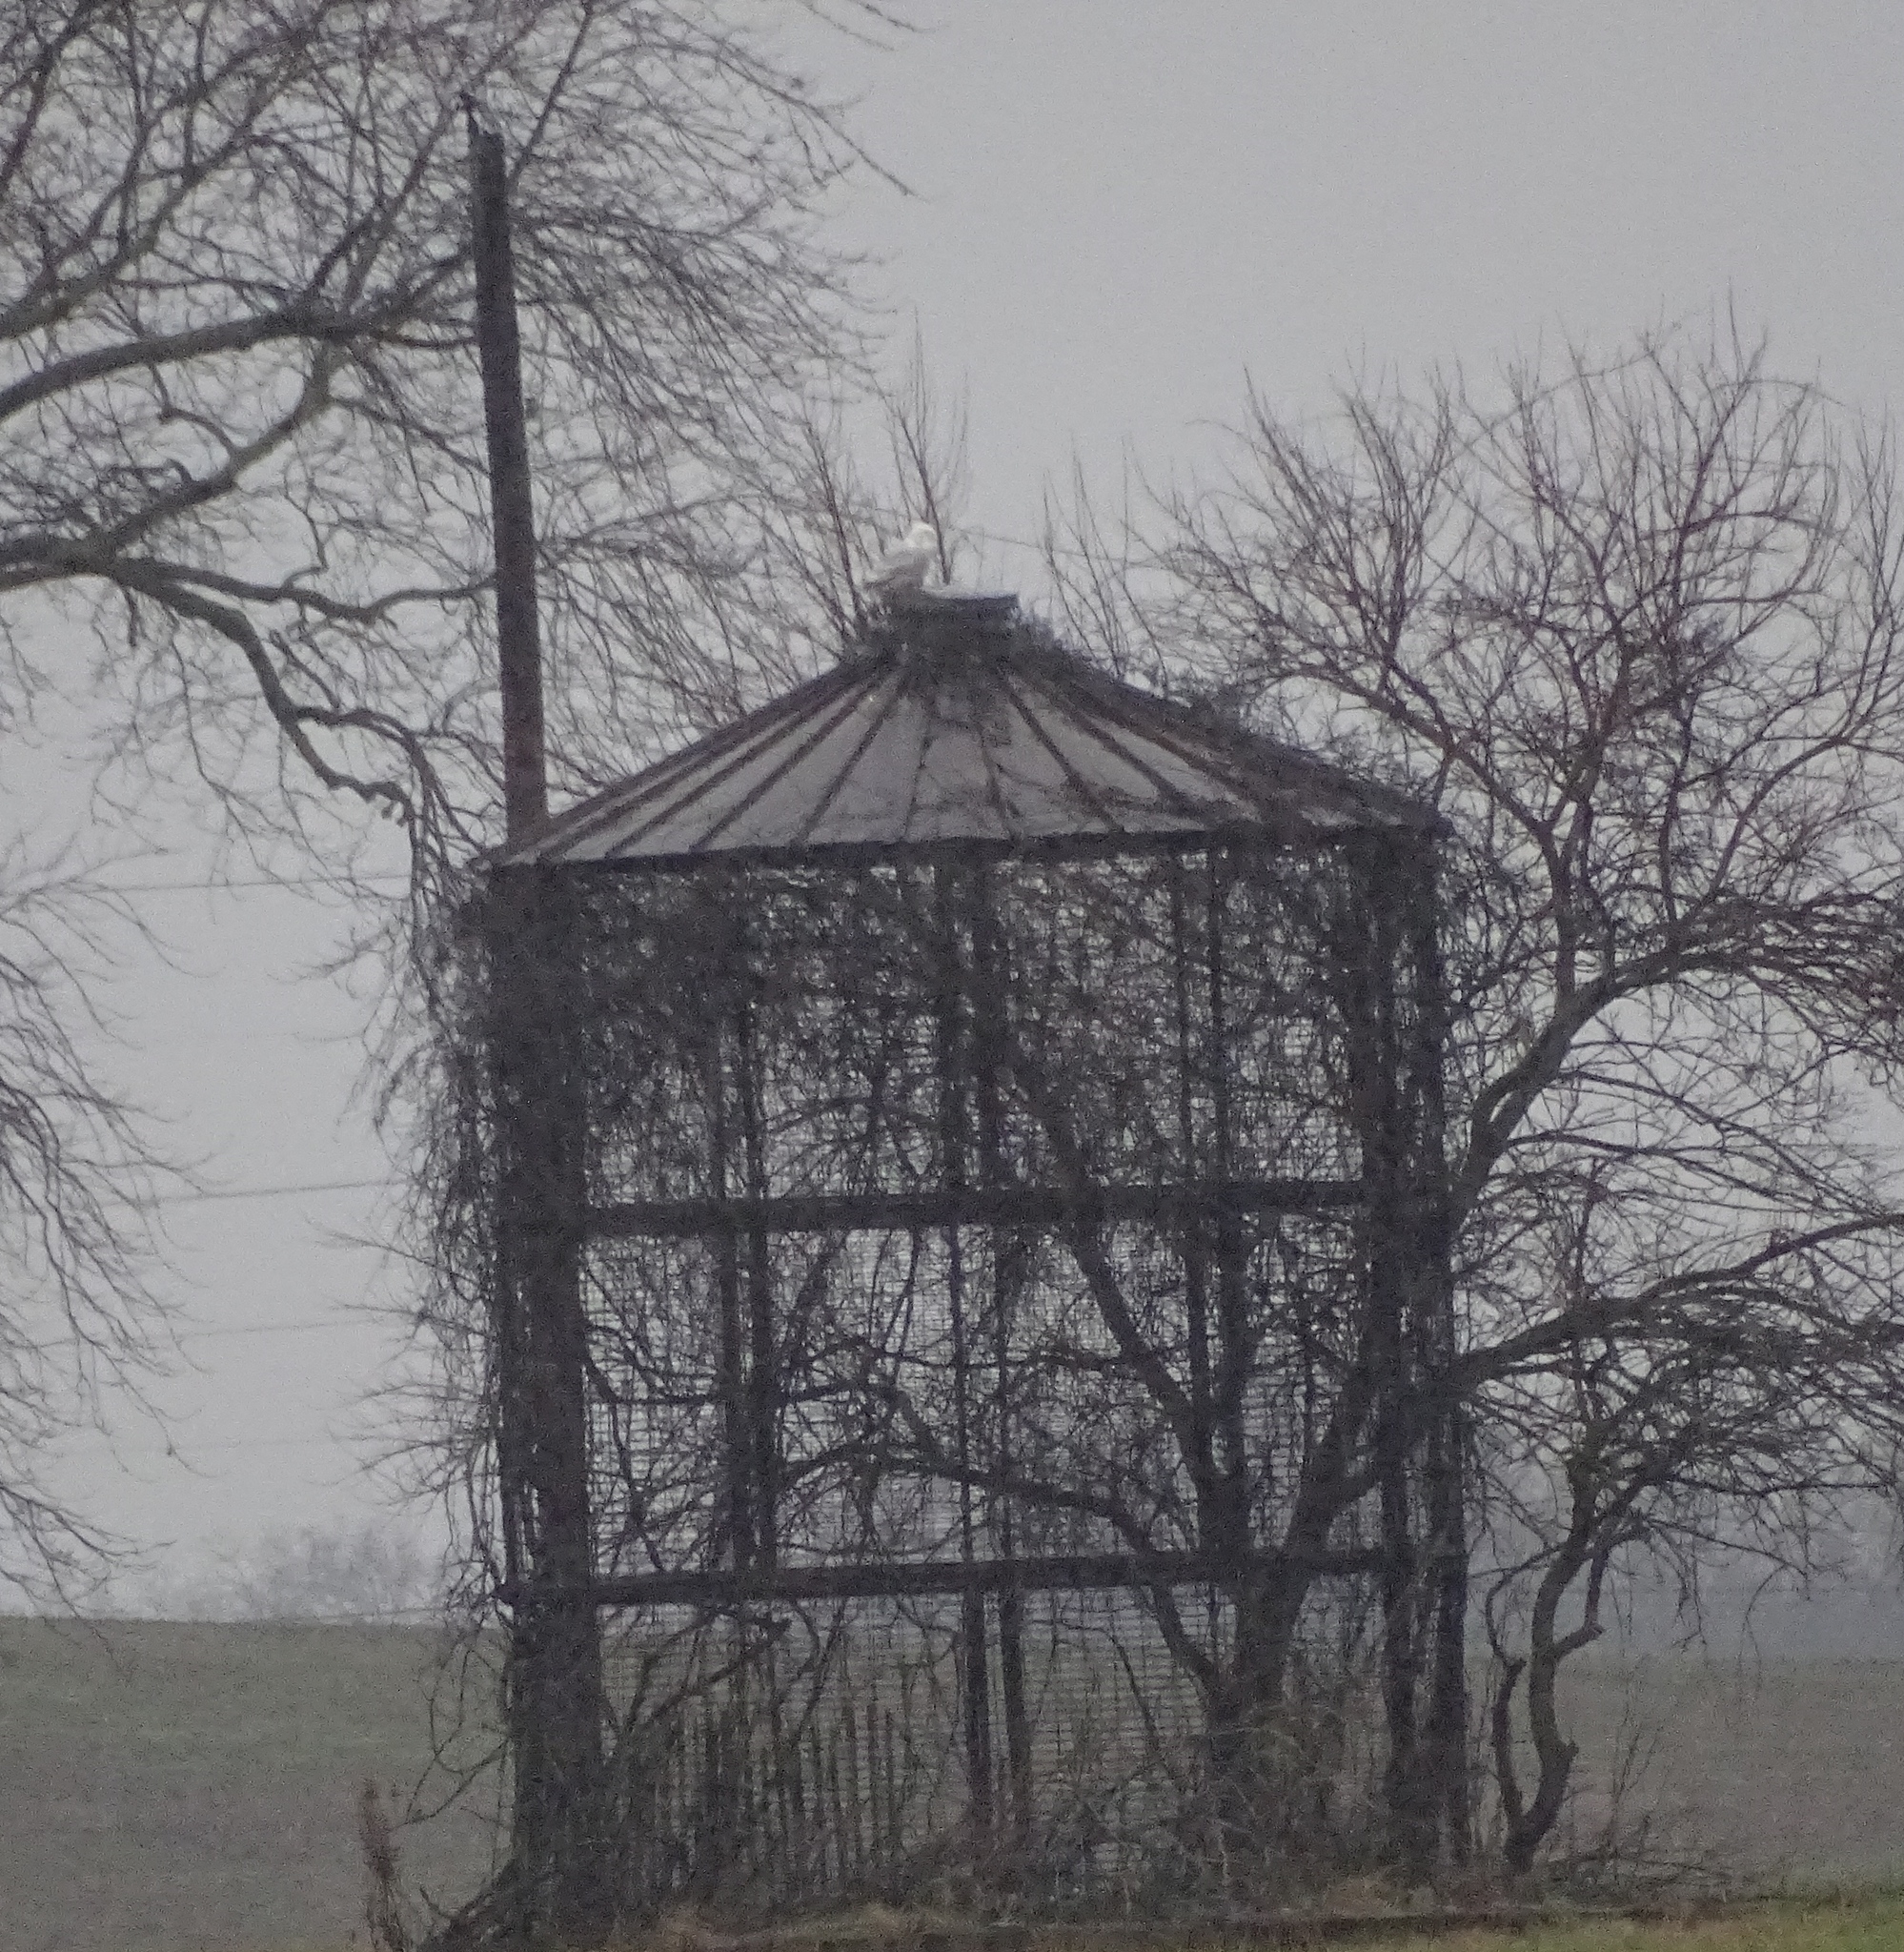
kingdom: Animalia
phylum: Chordata
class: Aves
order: Strigiformes
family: Strigidae
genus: Bubo
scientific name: Bubo scandiacus
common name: Snowy owl
